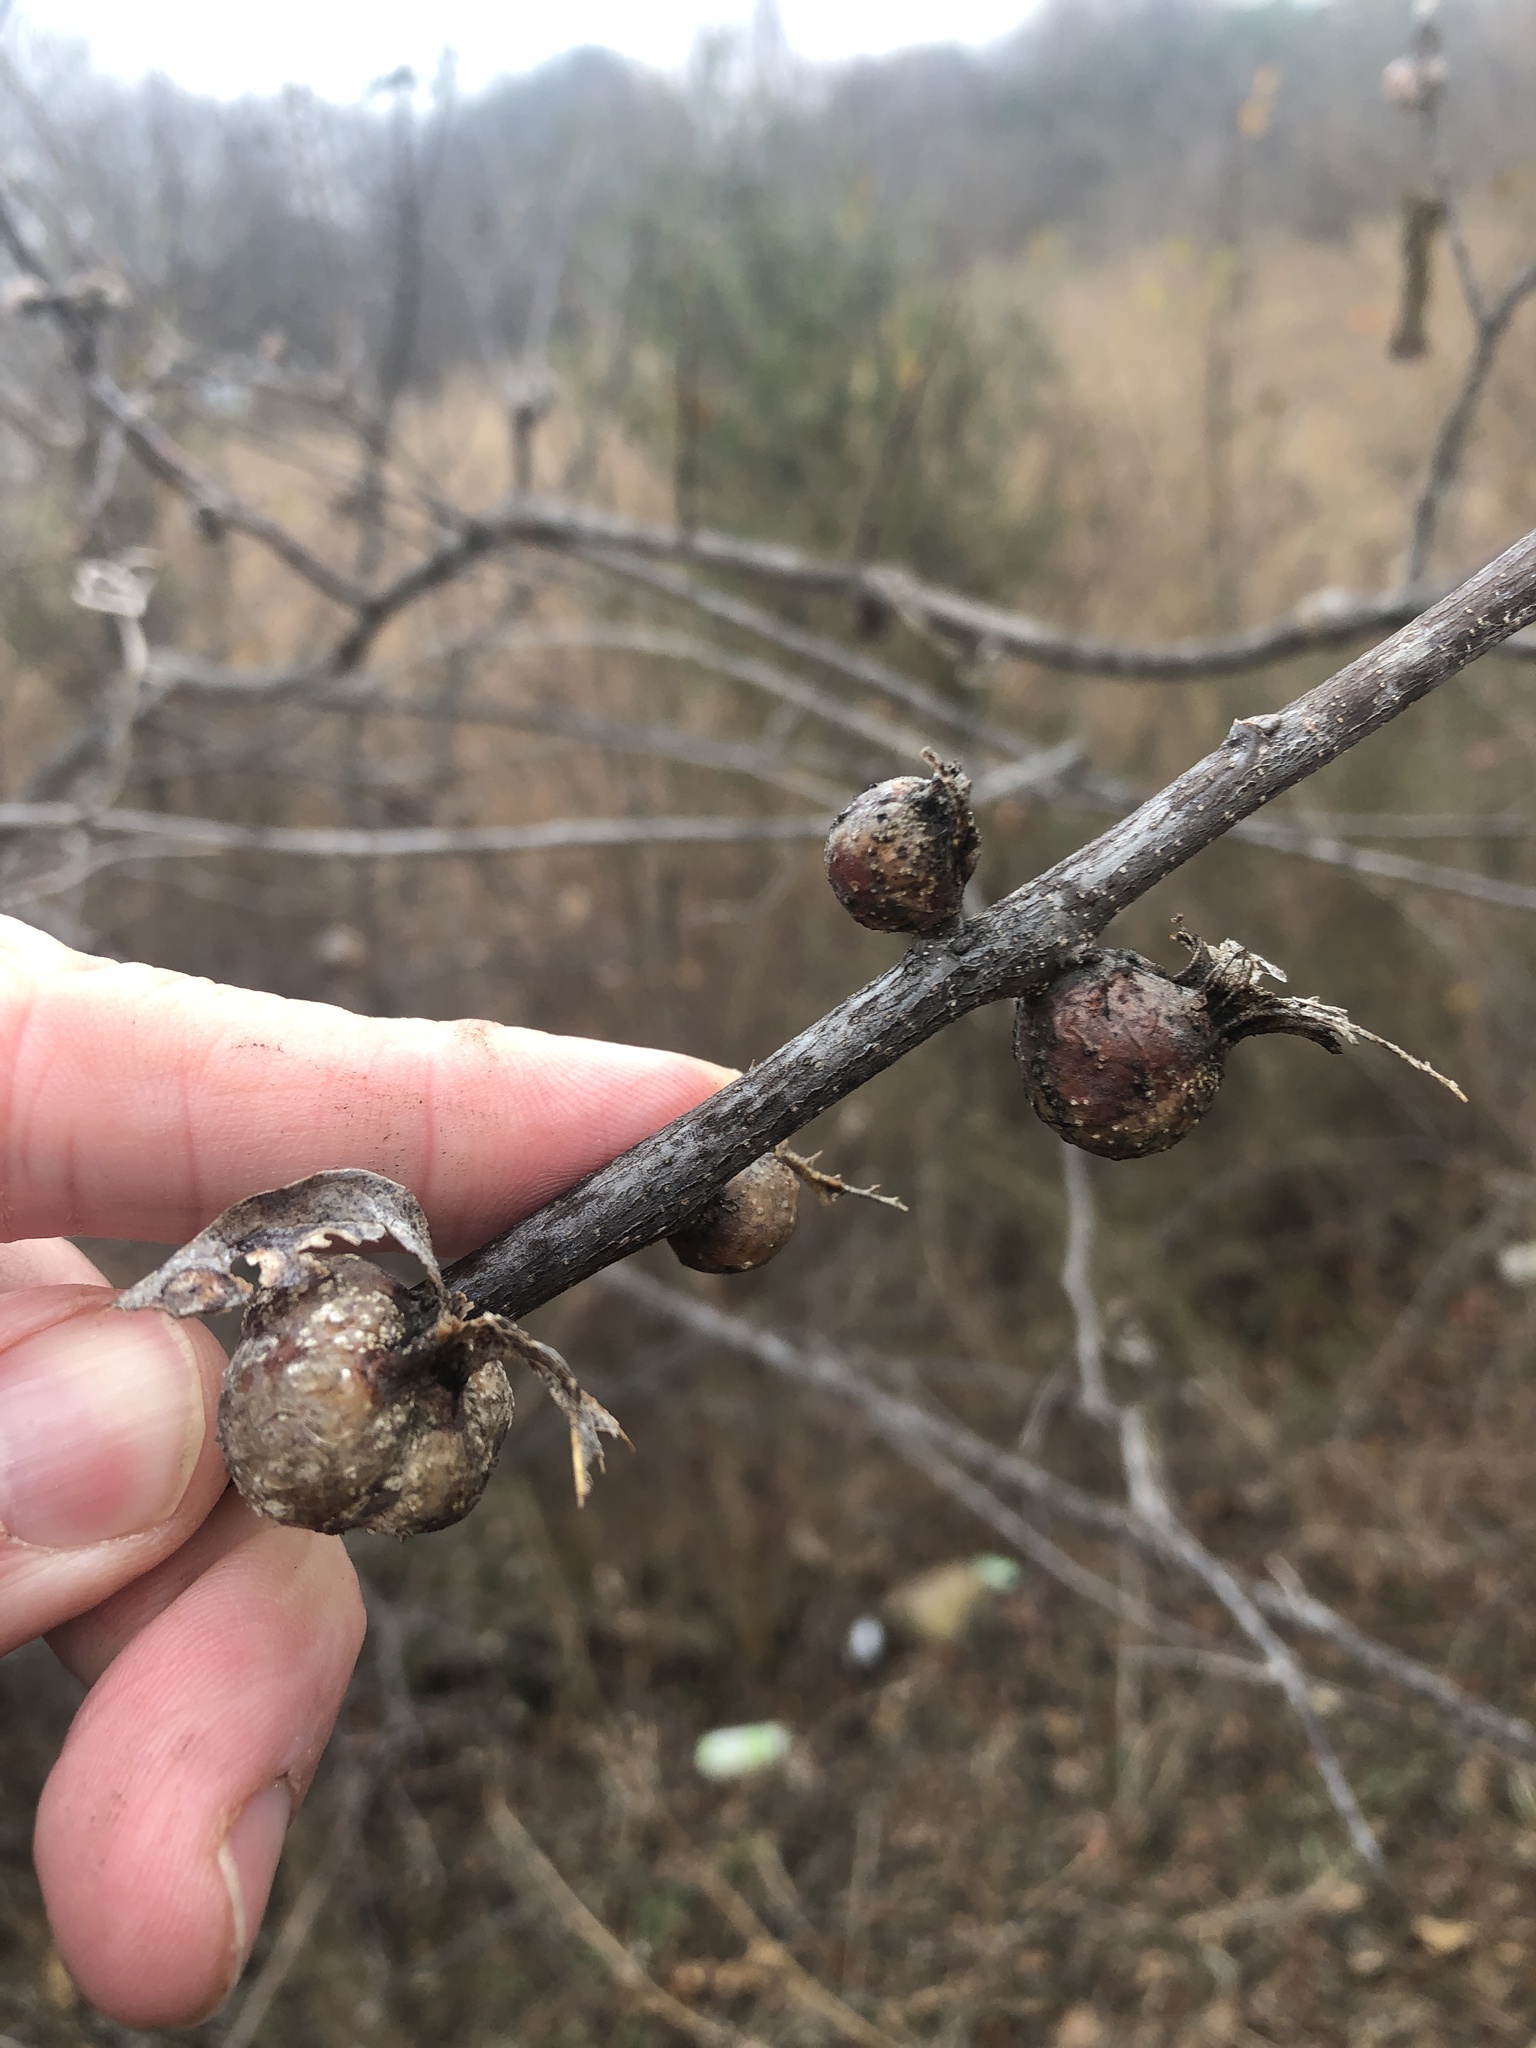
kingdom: Animalia
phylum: Arthropoda
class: Insecta
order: Hemiptera
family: Aphalaridae
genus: Pachypsylla
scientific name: Pachypsylla venusta
